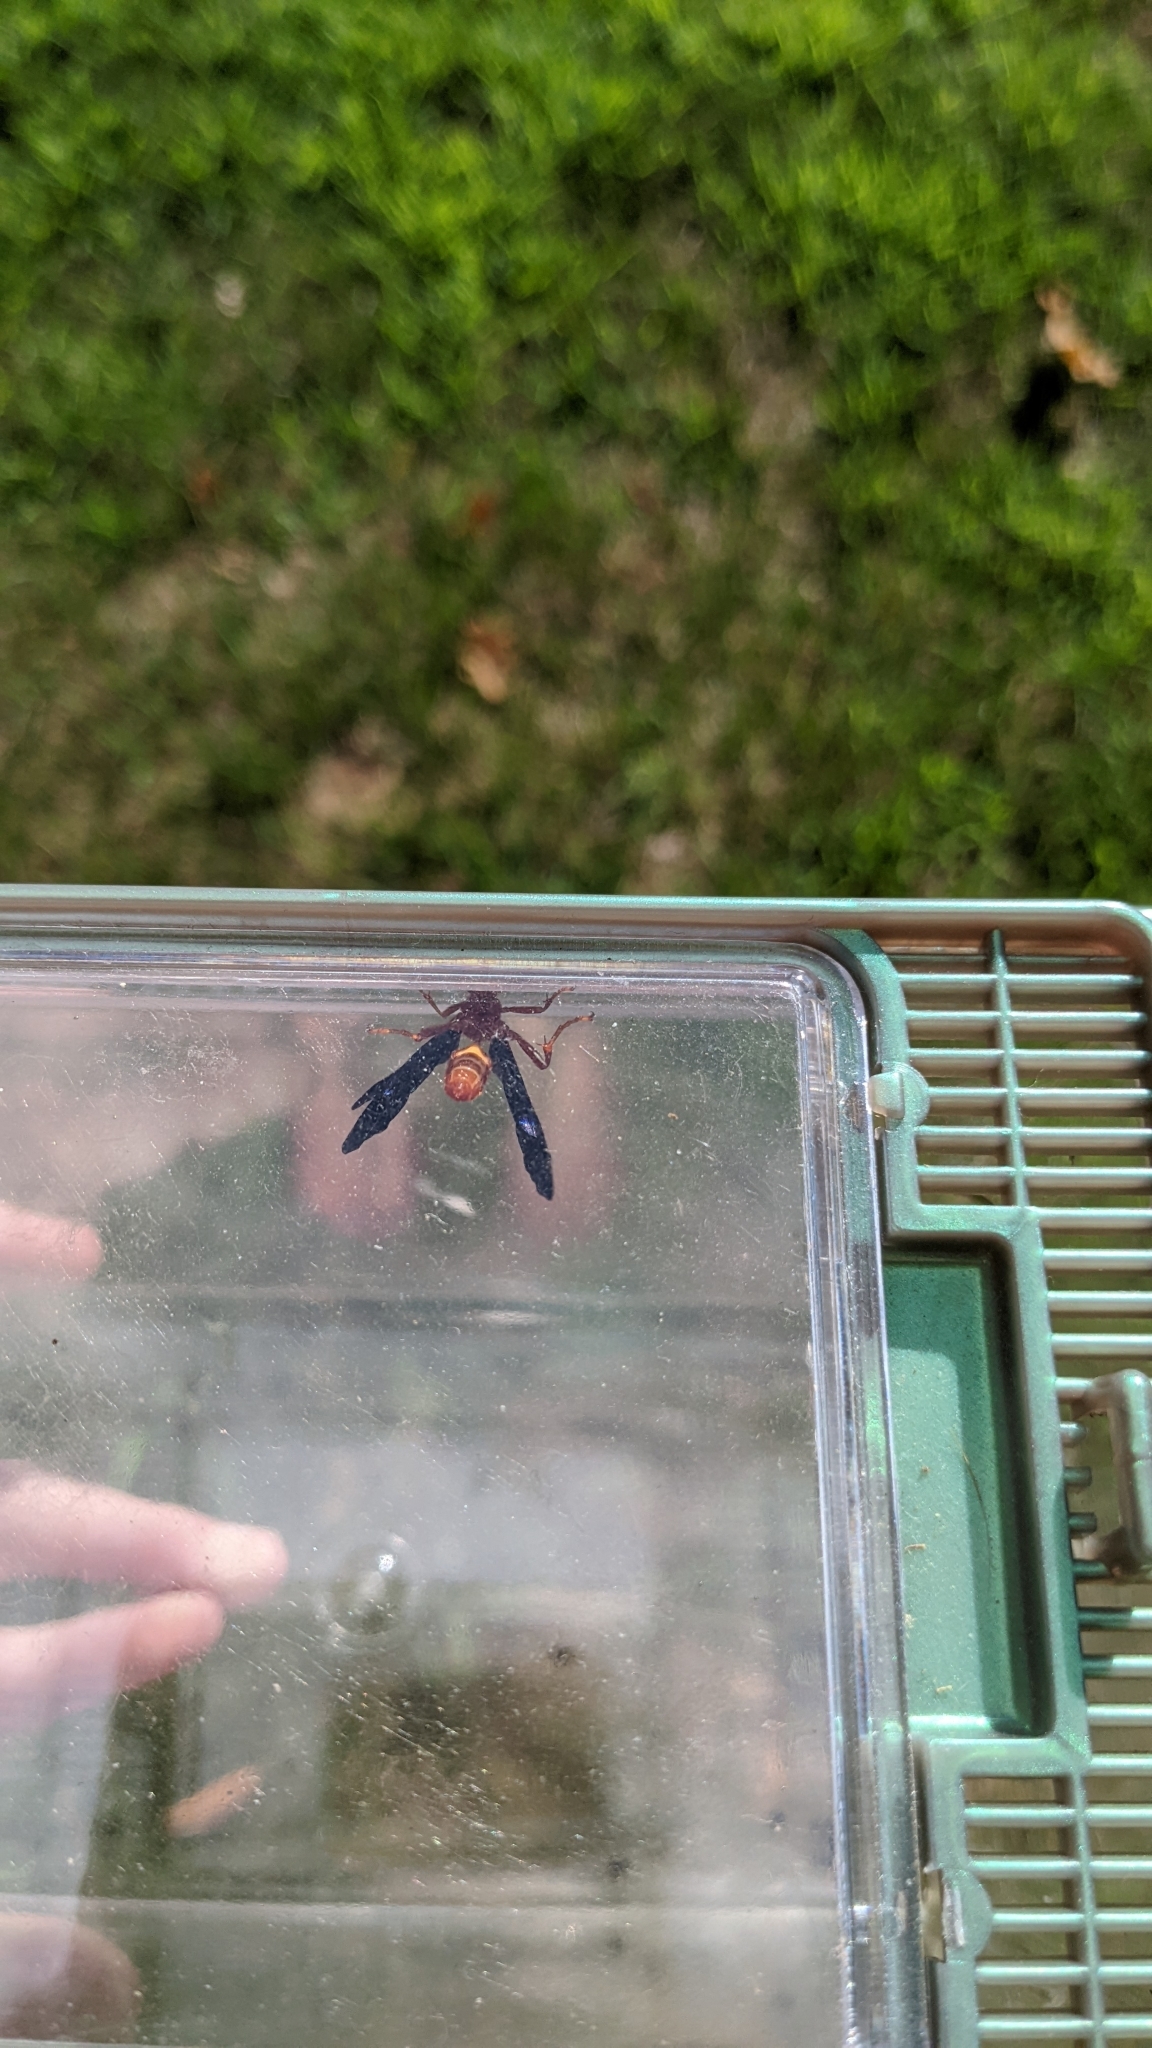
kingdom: Animalia
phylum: Arthropoda
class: Insecta
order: Hymenoptera
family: Ichneumonidae
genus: Trogus
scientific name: Trogus pennator
